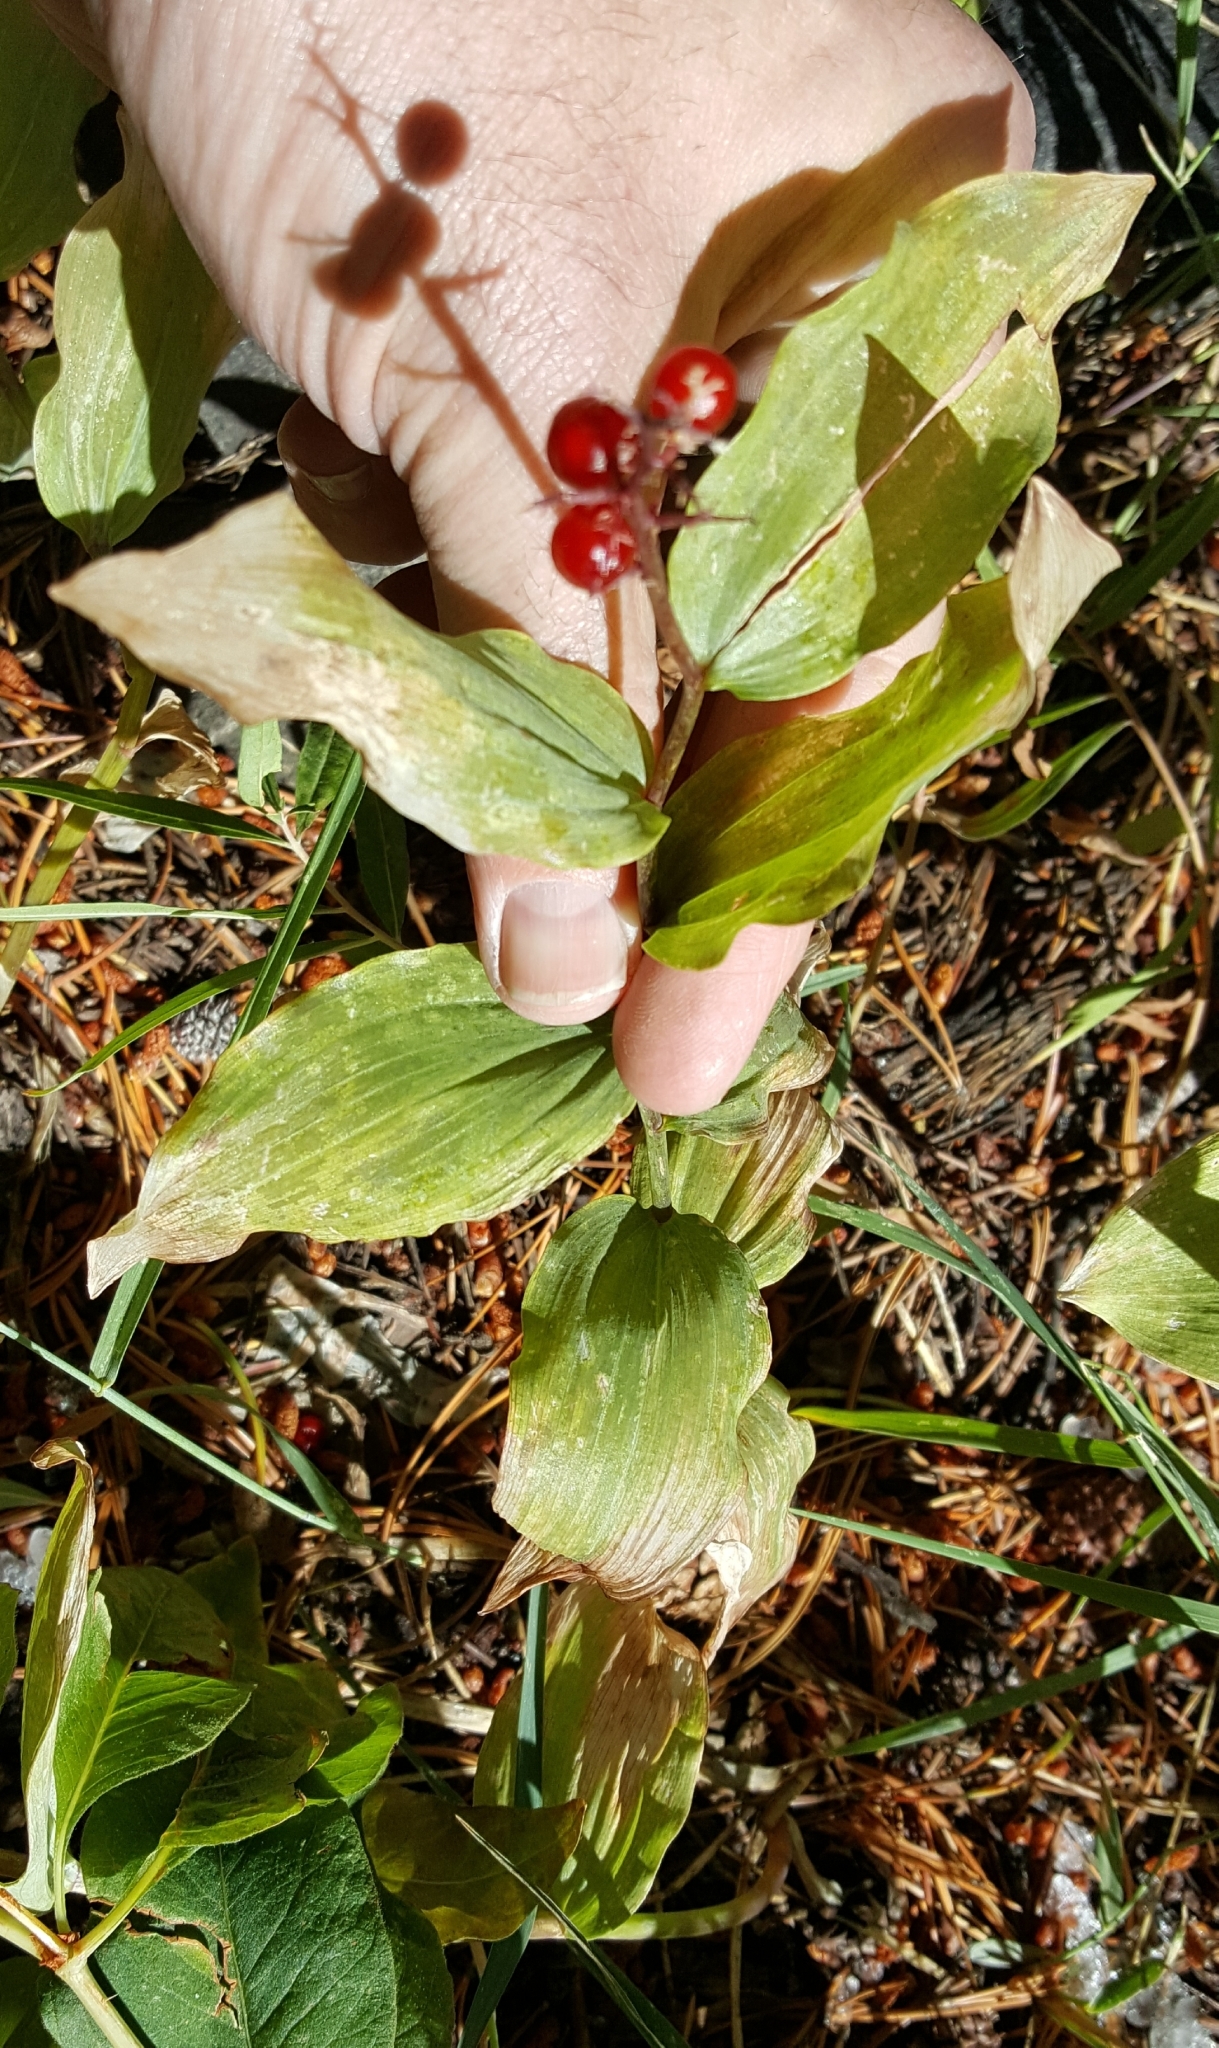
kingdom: Plantae
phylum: Tracheophyta
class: Liliopsida
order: Asparagales
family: Asparagaceae
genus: Maianthemum
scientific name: Maianthemum racemosum
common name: False spikenard
